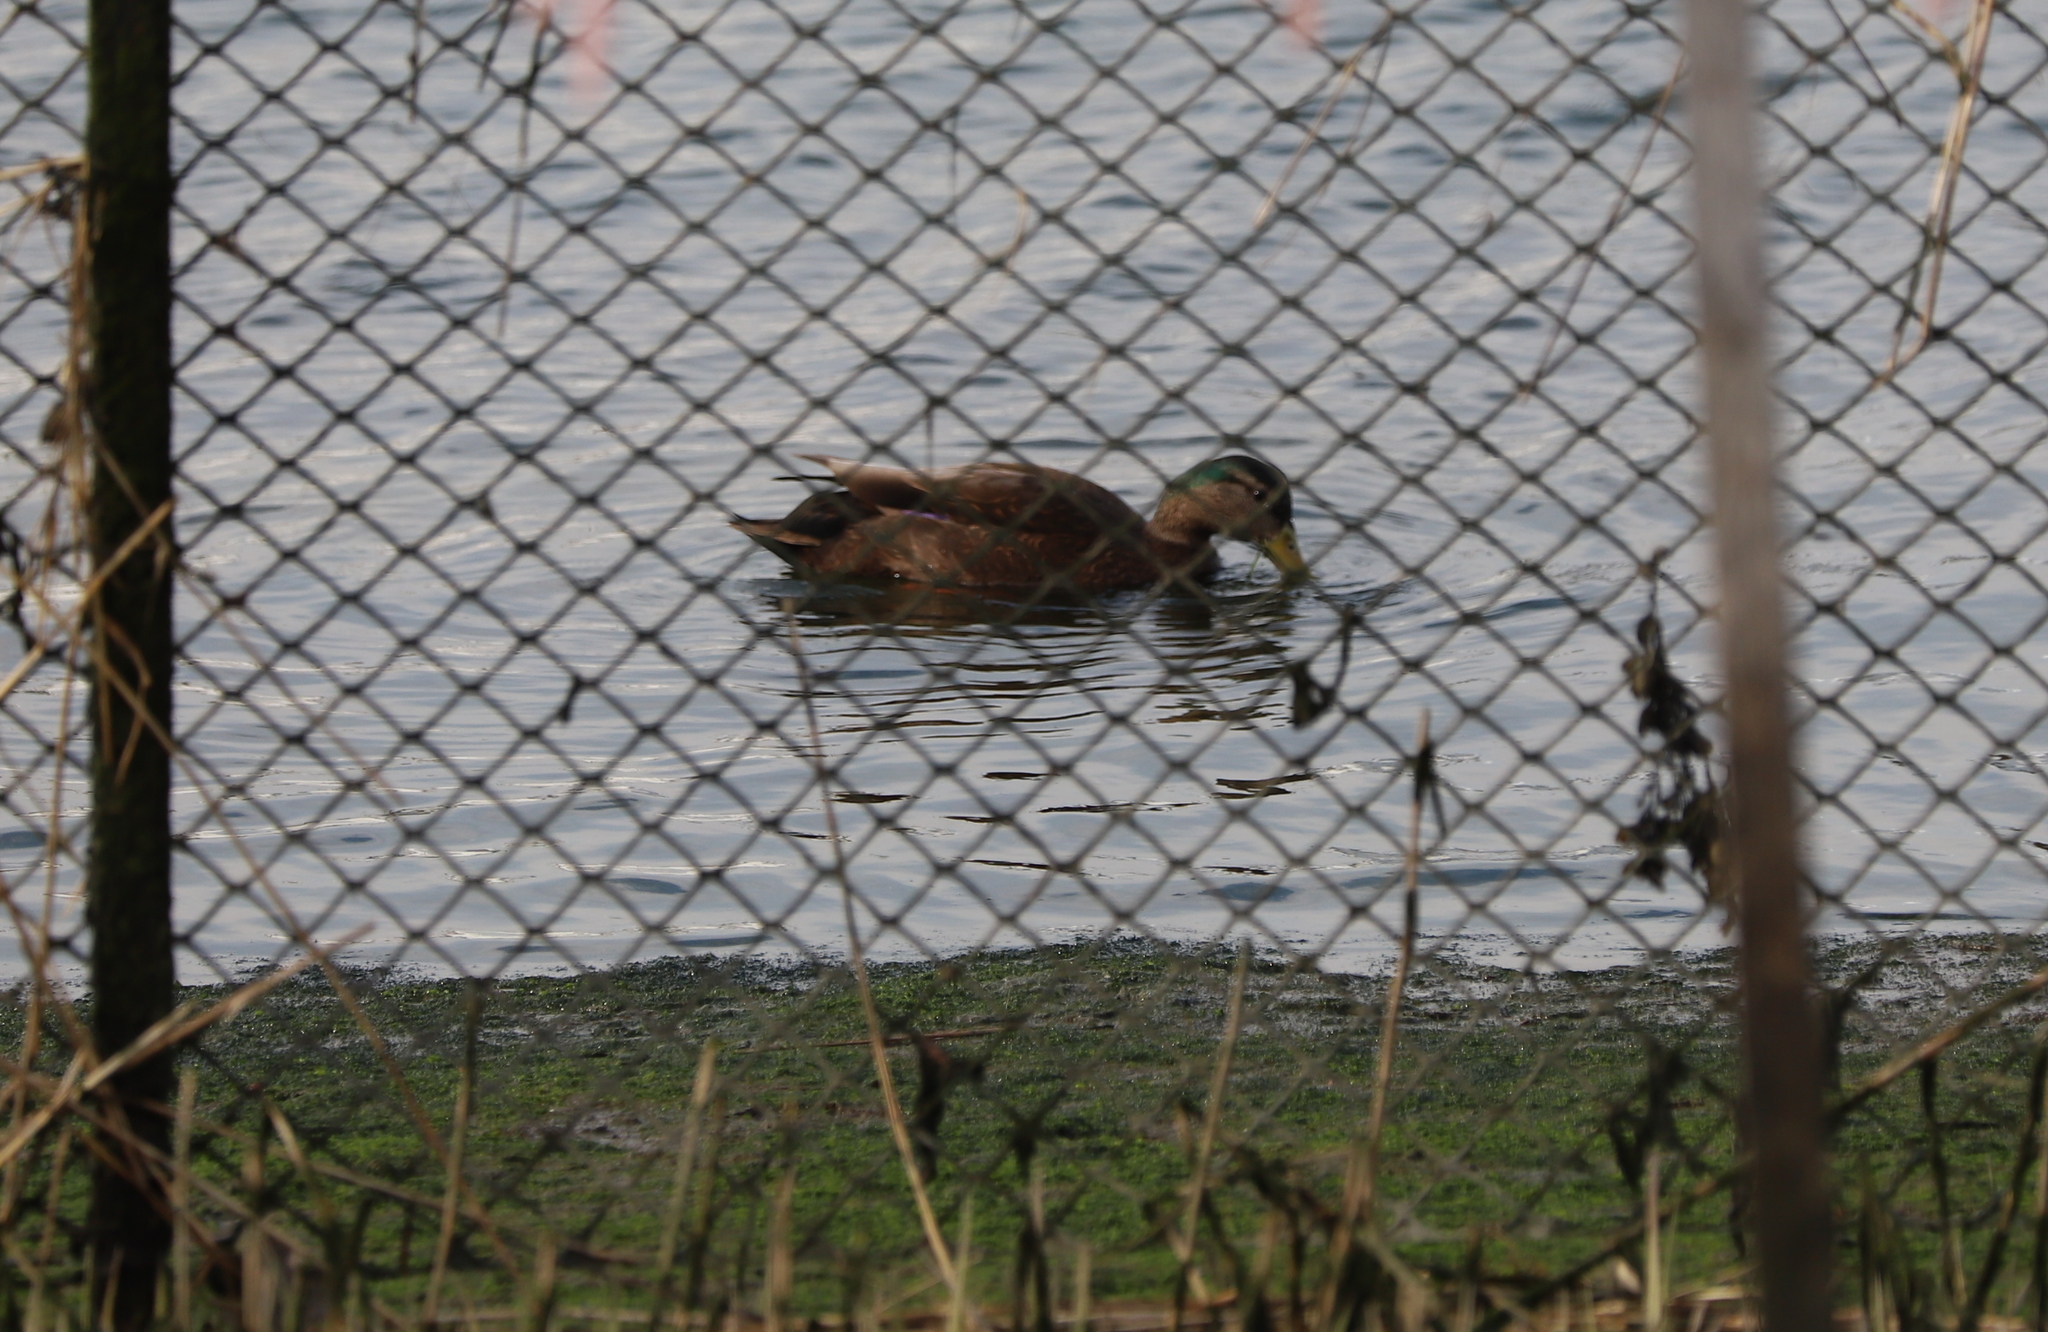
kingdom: Animalia
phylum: Chordata
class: Aves
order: Anseriformes
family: Anatidae
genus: Anas
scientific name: Anas
